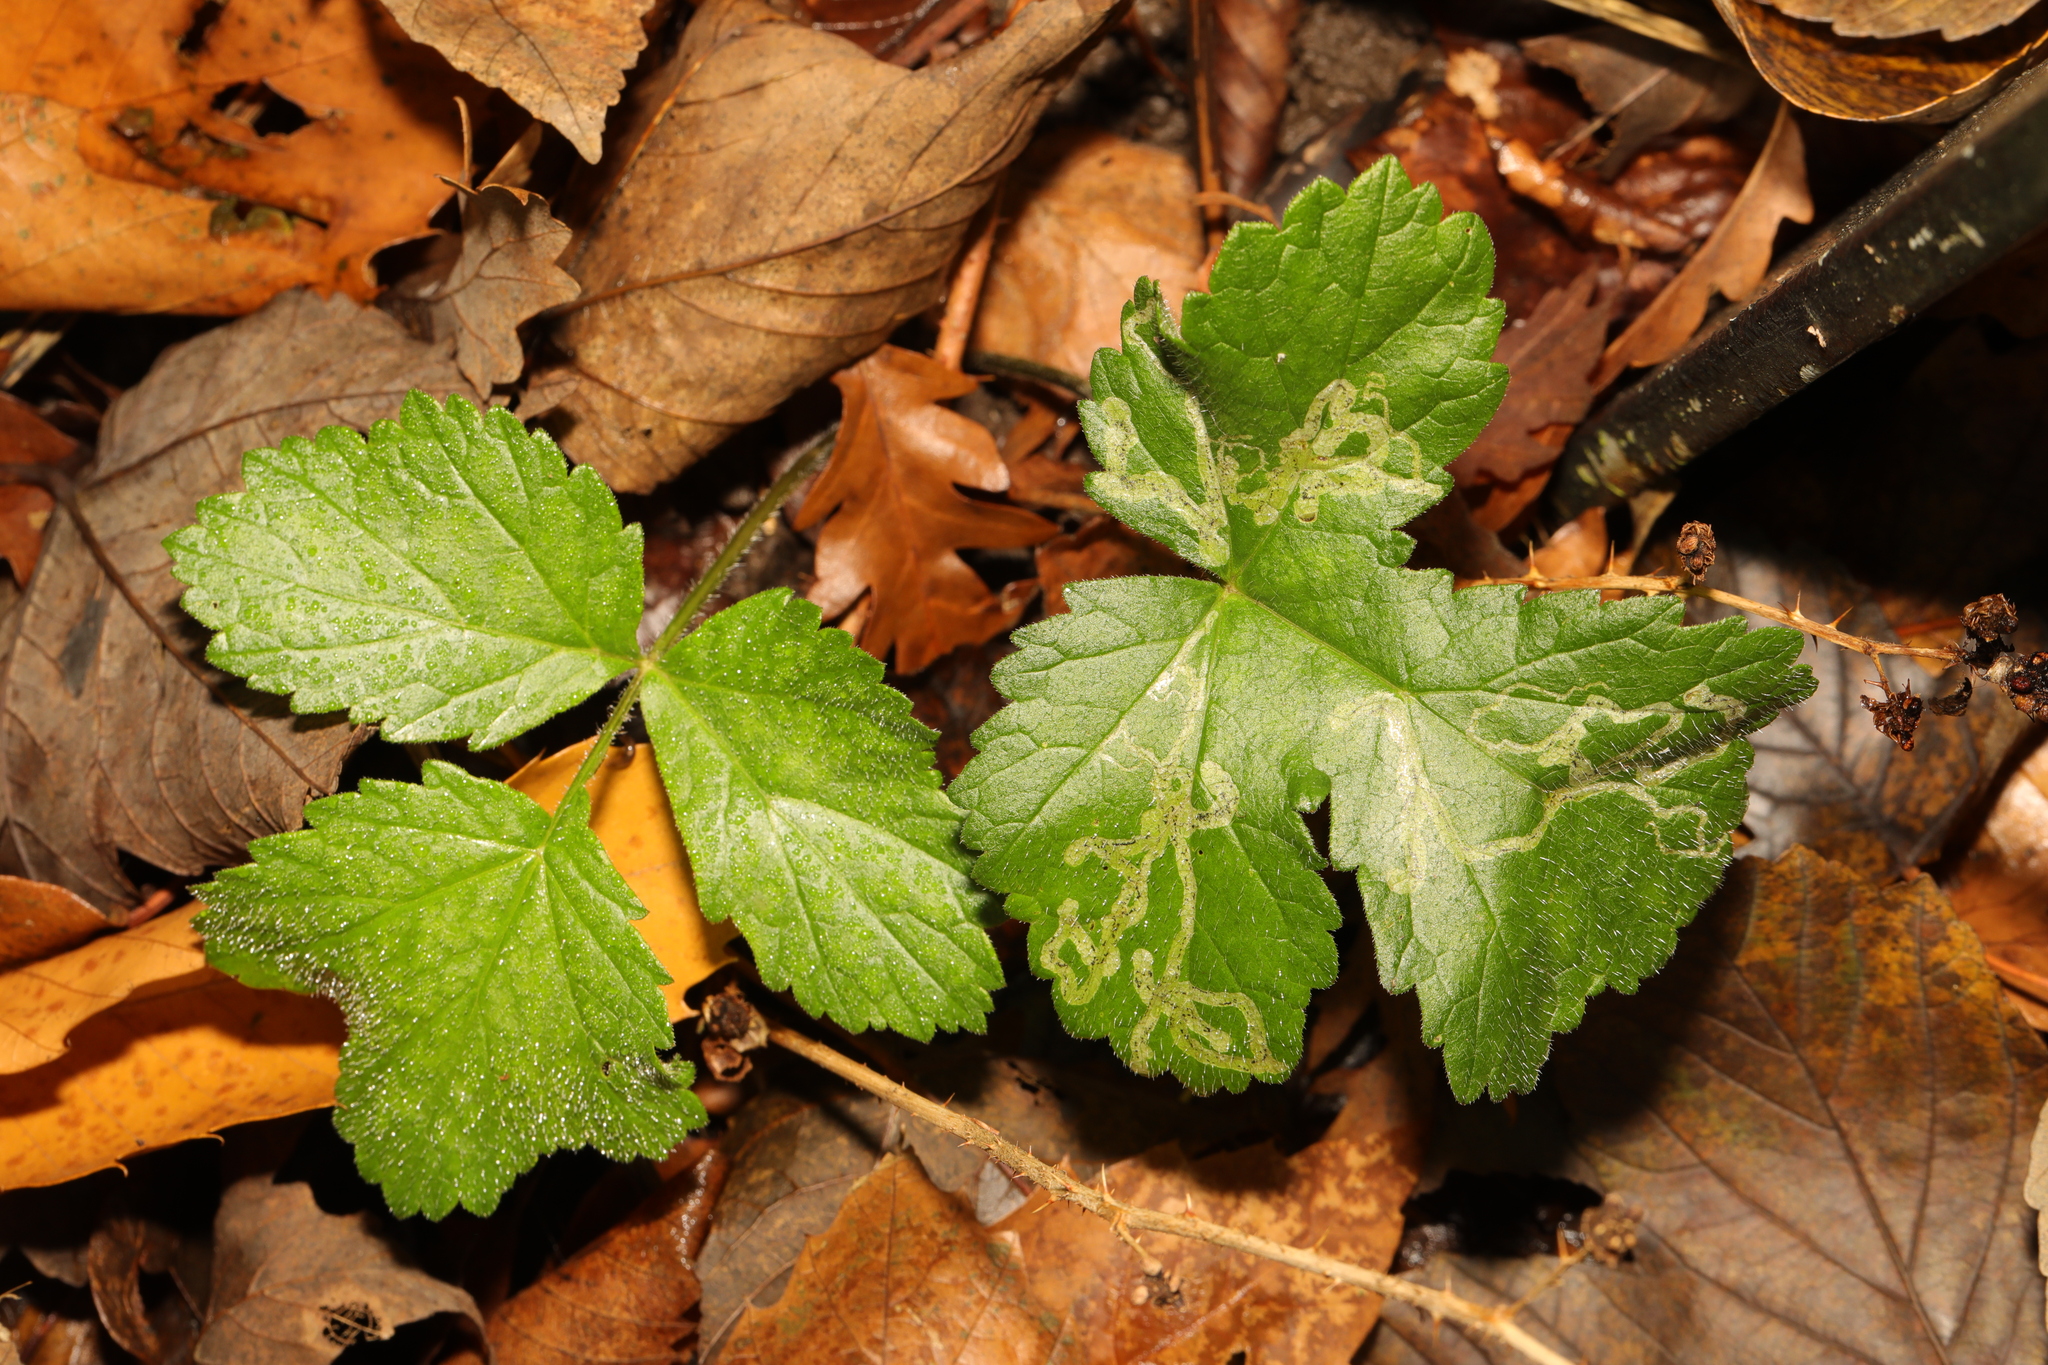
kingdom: Plantae
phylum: Tracheophyta
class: Magnoliopsida
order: Apiales
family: Apiaceae
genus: Heracleum
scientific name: Heracleum sphondylium
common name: Hogweed
